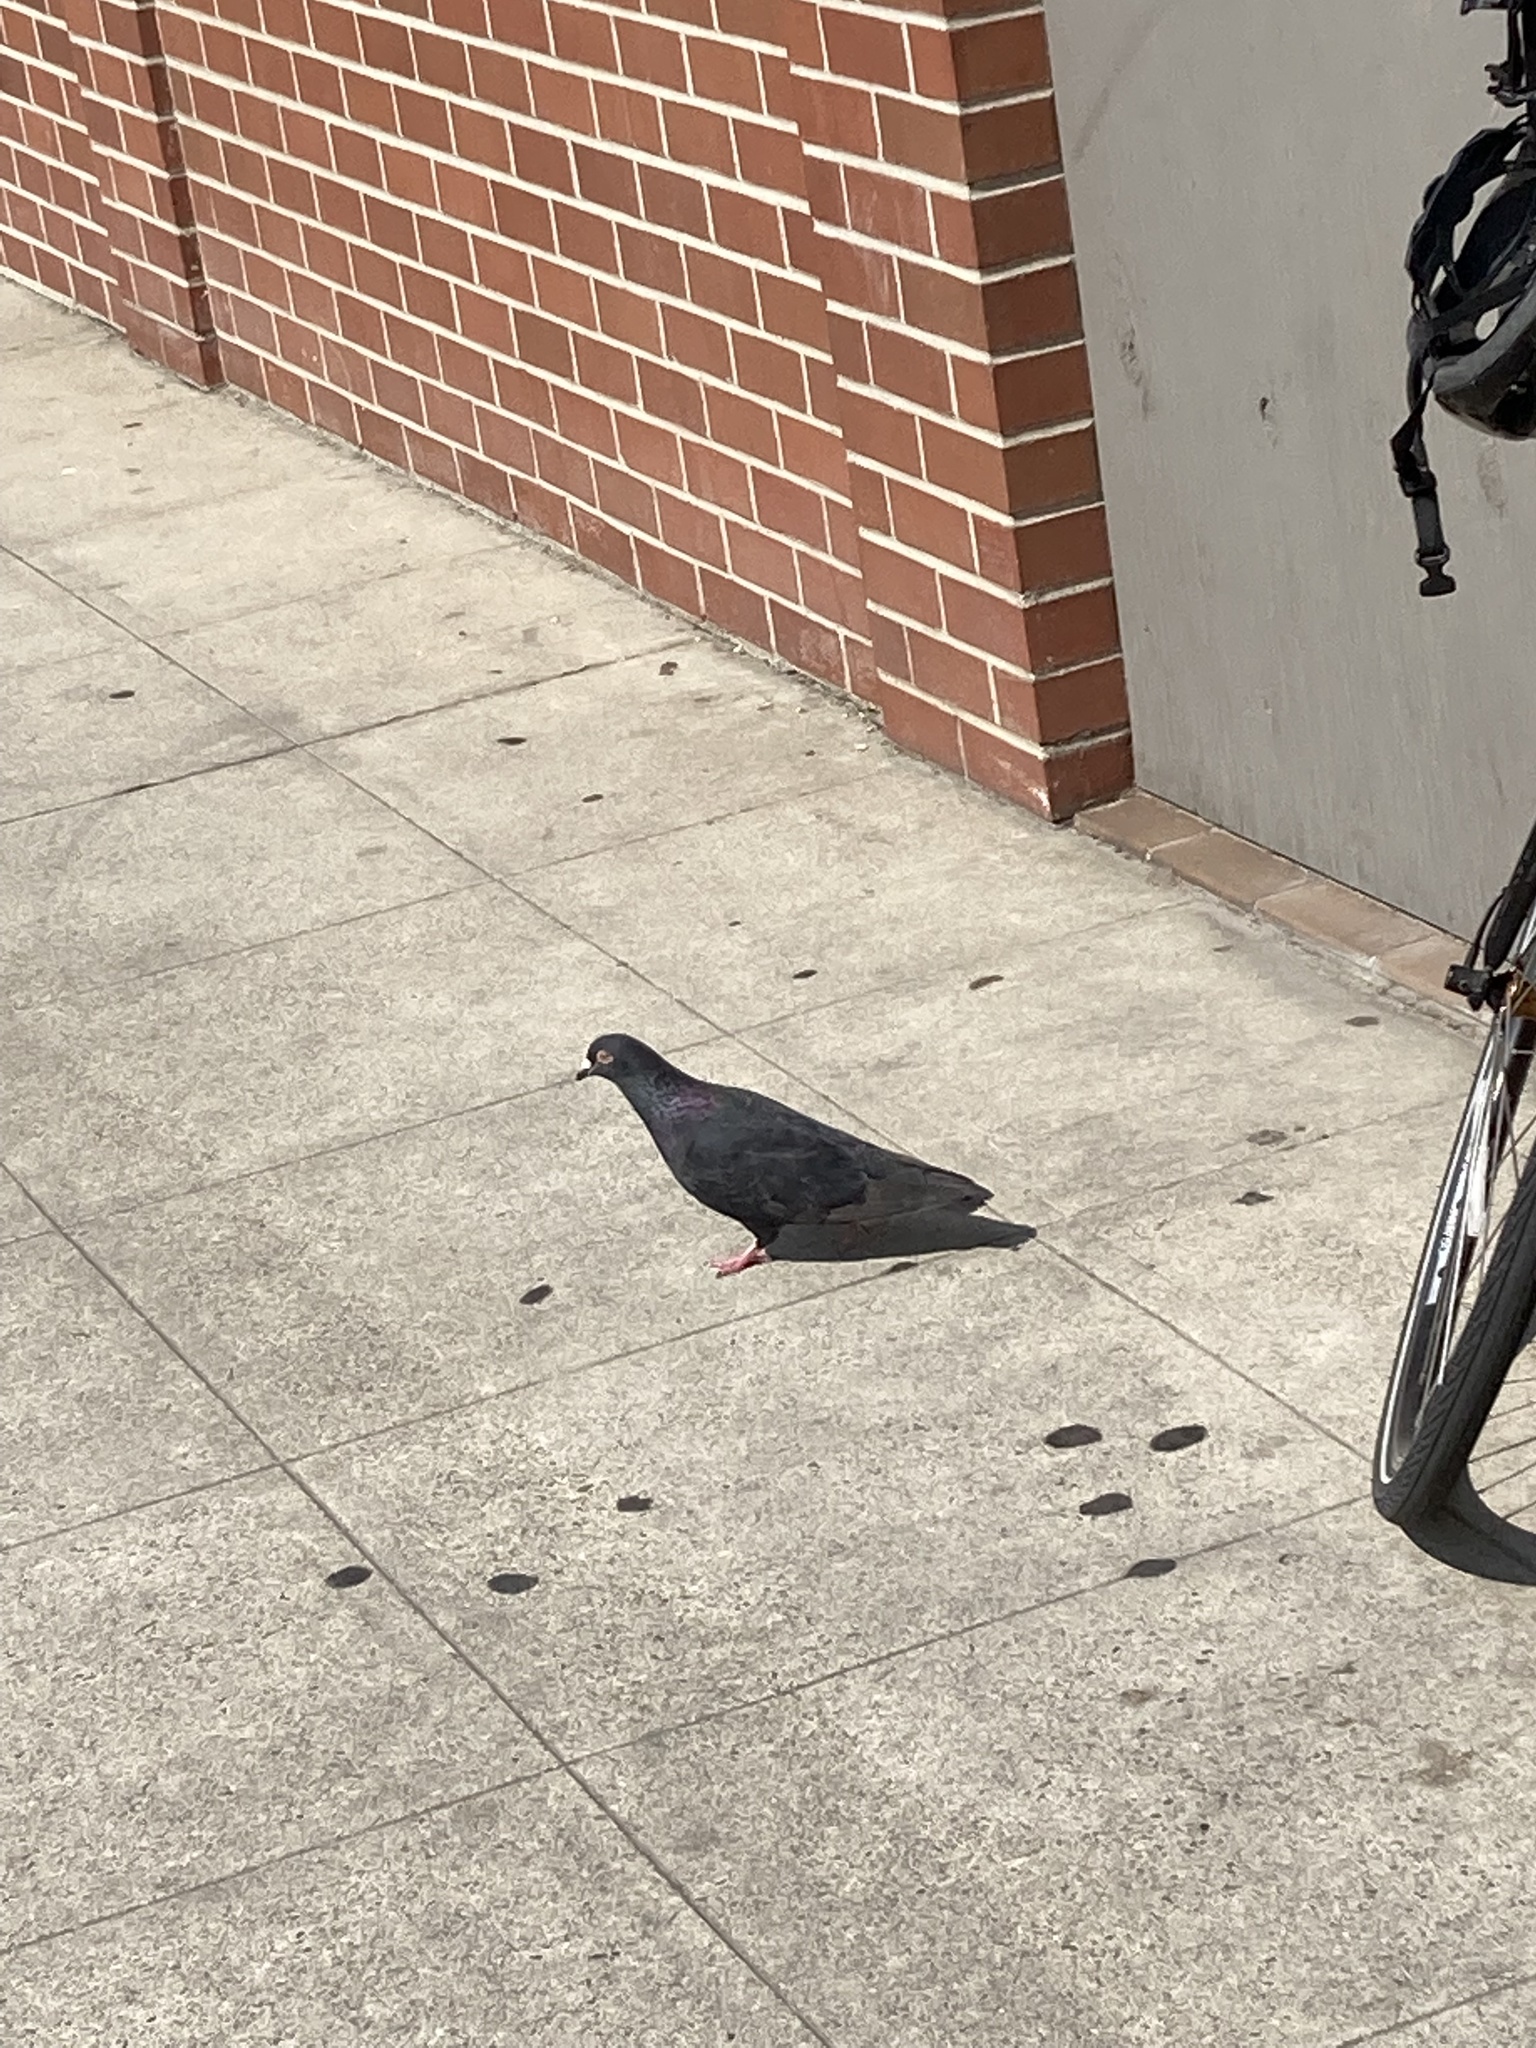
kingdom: Animalia
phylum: Chordata
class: Aves
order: Columbiformes
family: Columbidae
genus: Columba
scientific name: Columba livia
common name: Rock pigeon
